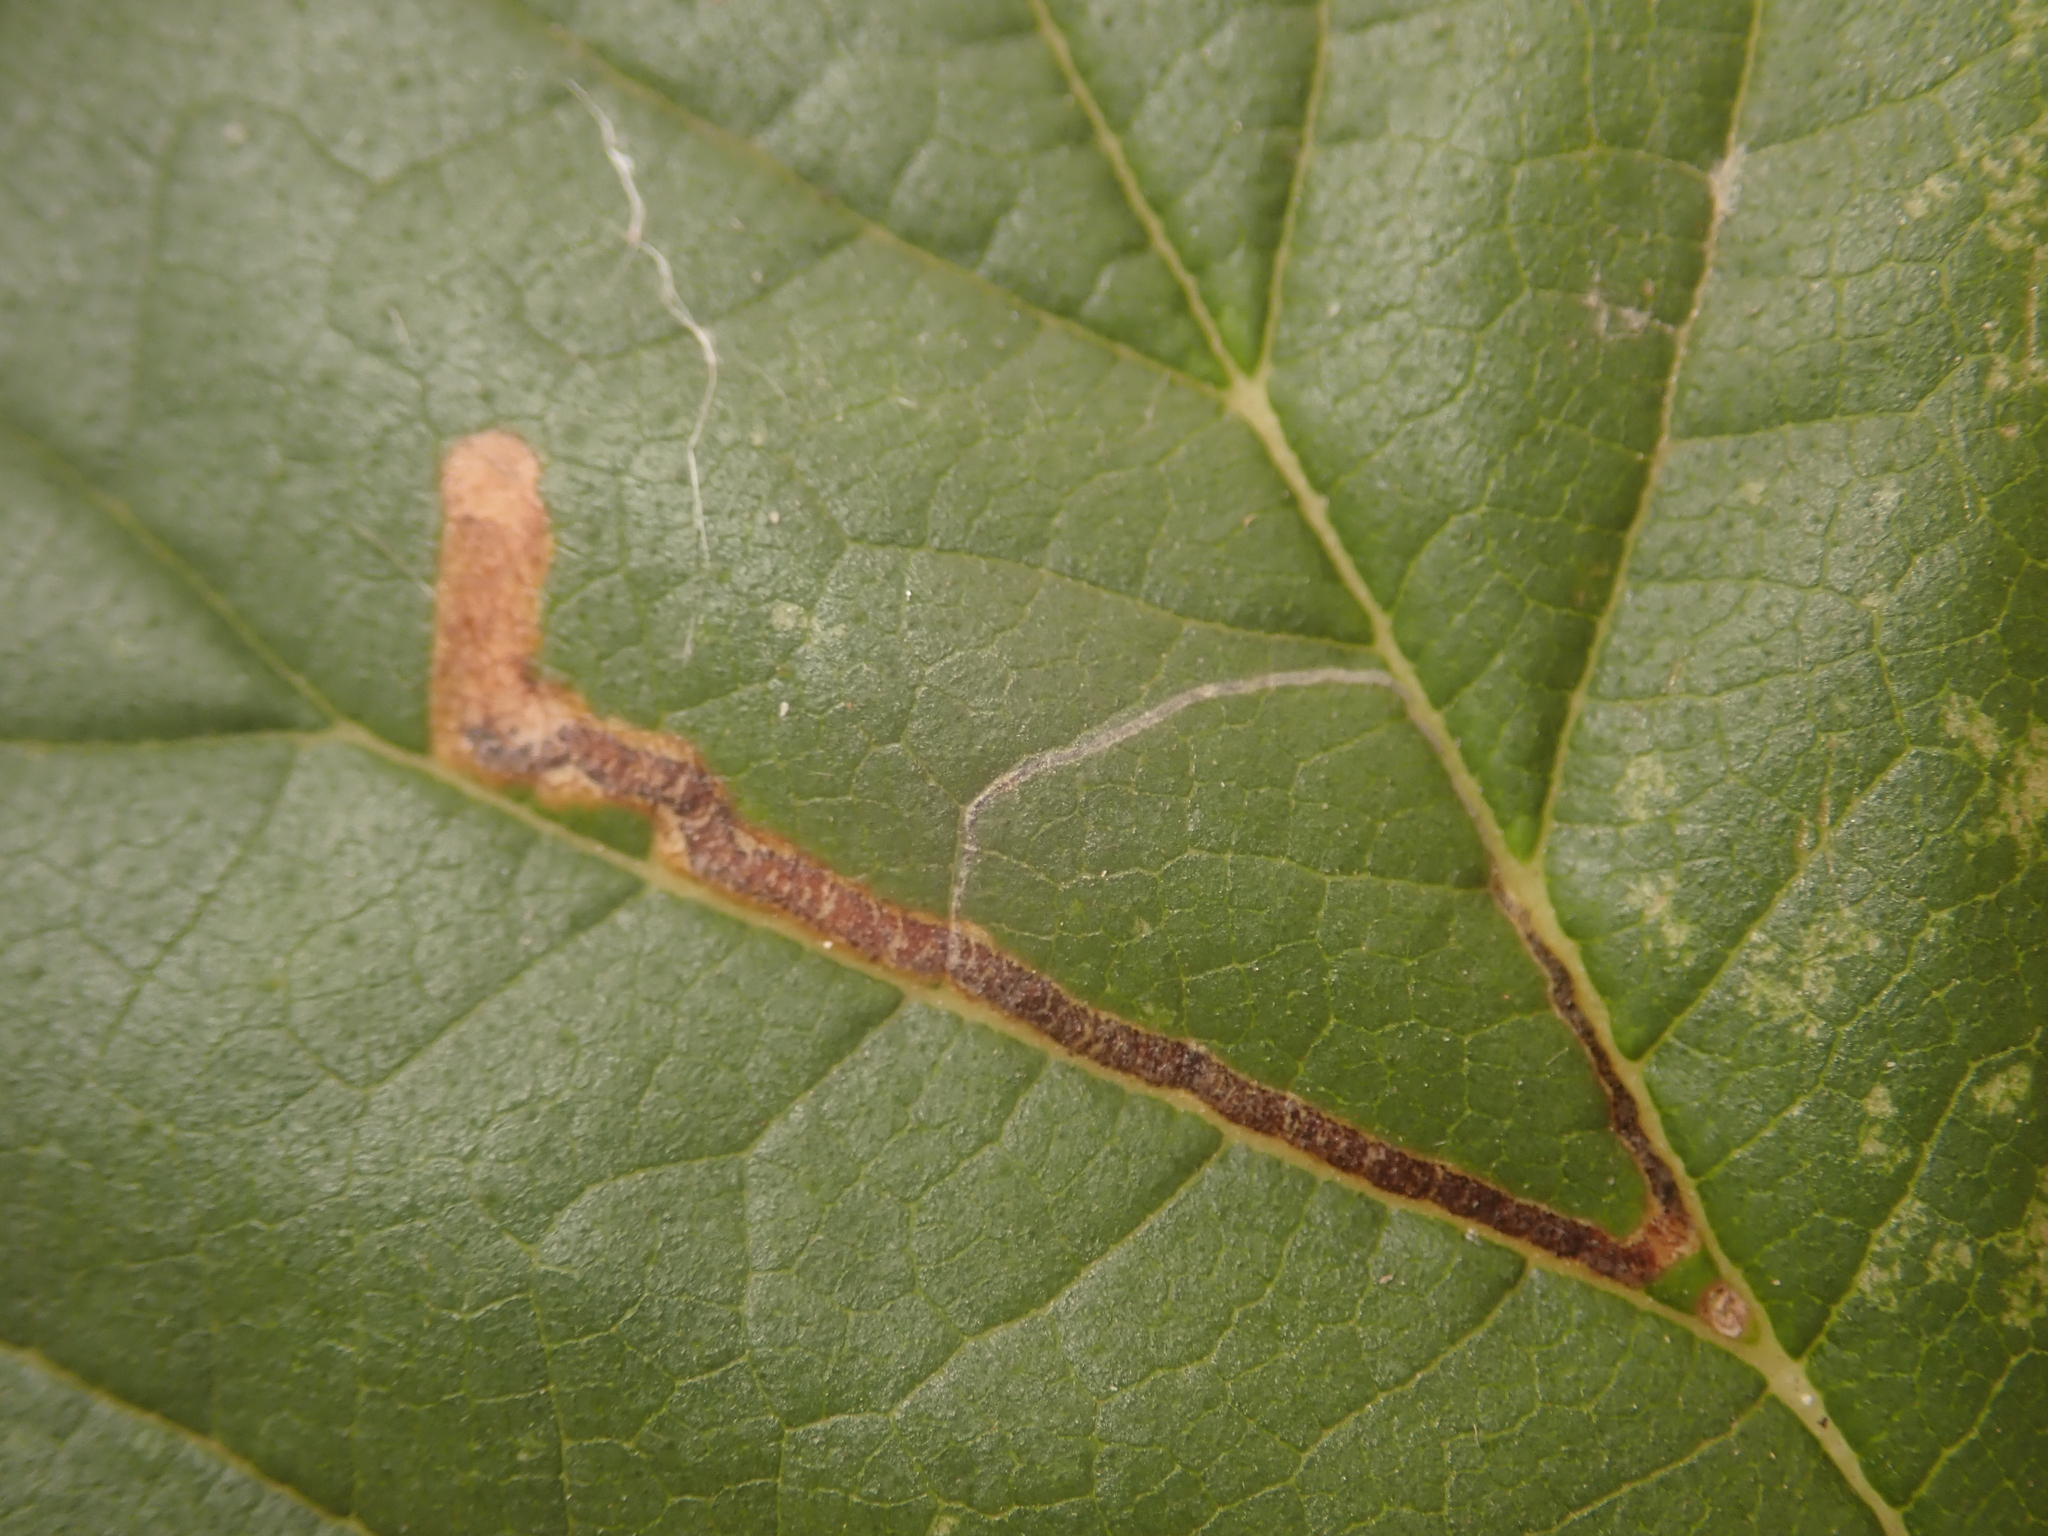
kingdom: Animalia
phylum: Arthropoda
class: Insecta
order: Lepidoptera
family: Nepticulidae
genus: Stigmella
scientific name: Stigmella lemniscella
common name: Red elm pigmy
